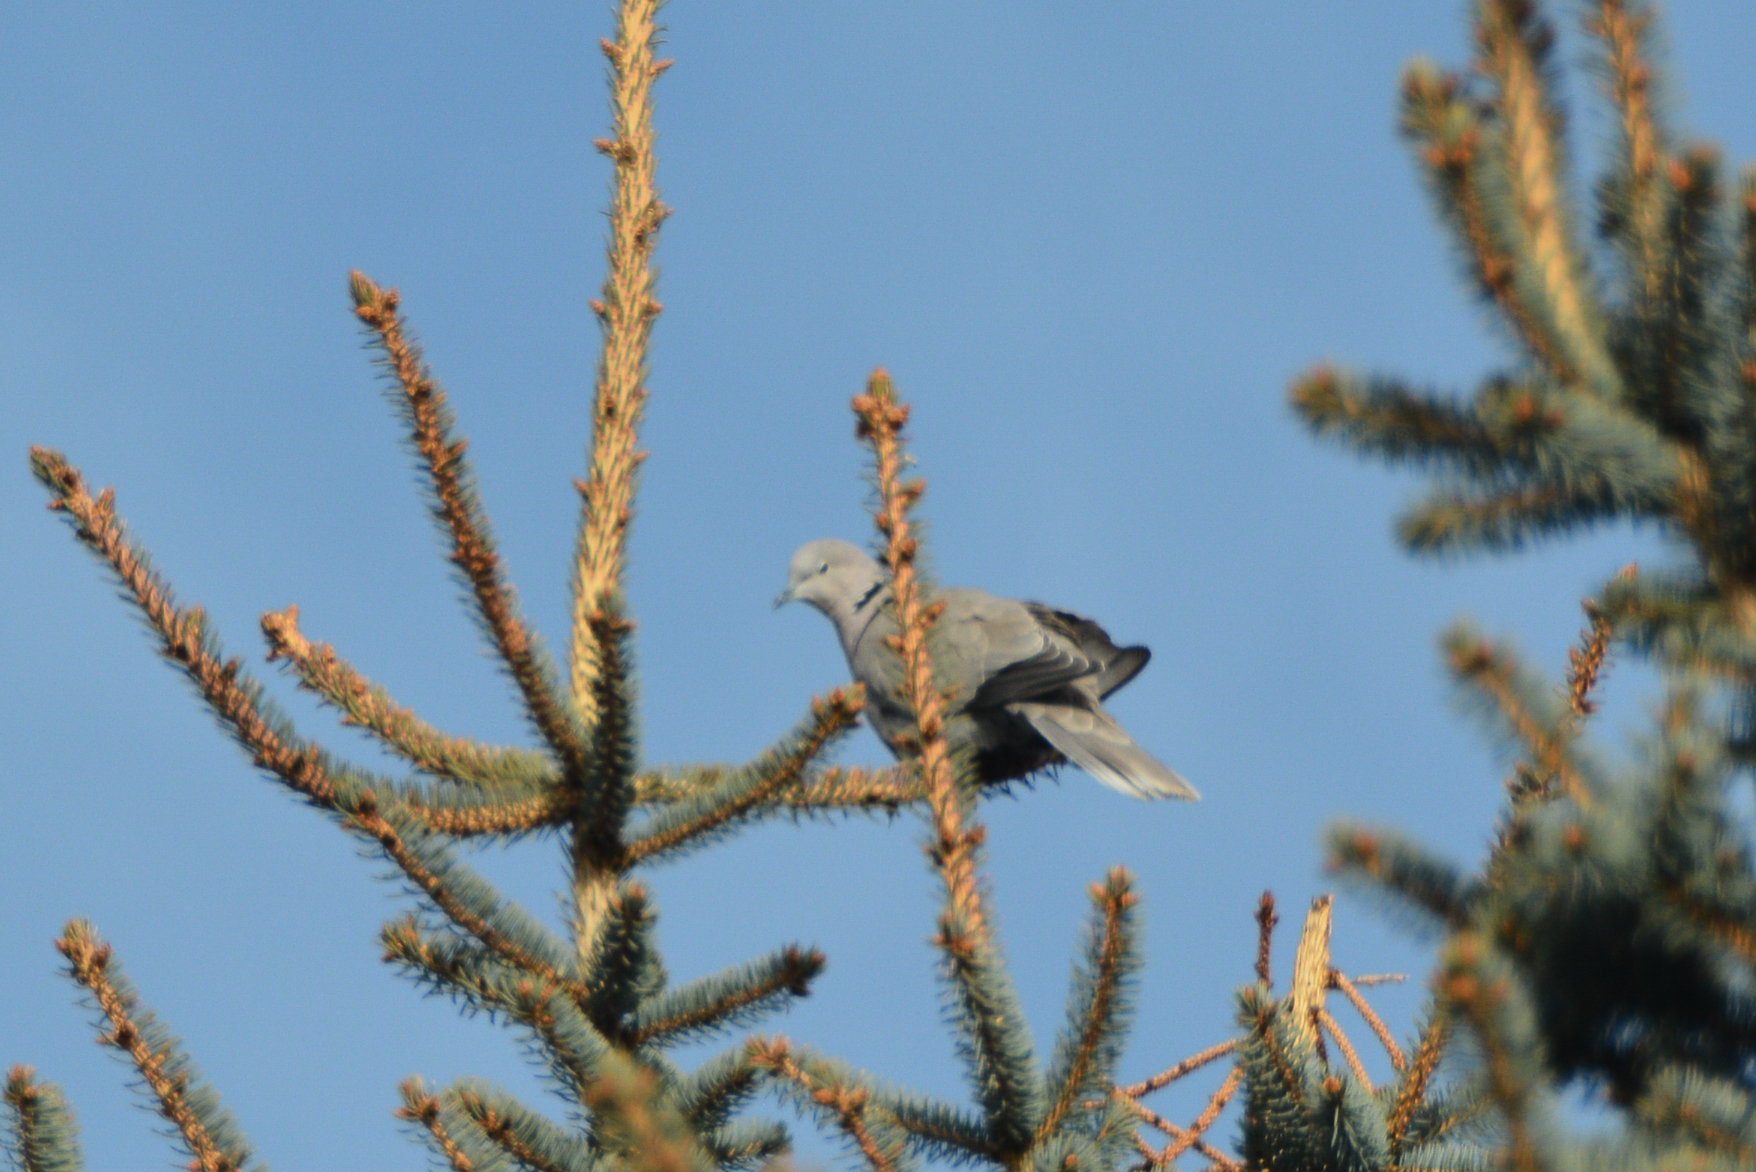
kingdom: Animalia
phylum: Chordata
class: Aves
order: Columbiformes
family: Columbidae
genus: Streptopelia
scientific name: Streptopelia decaocto
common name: Eurasian collared dove
